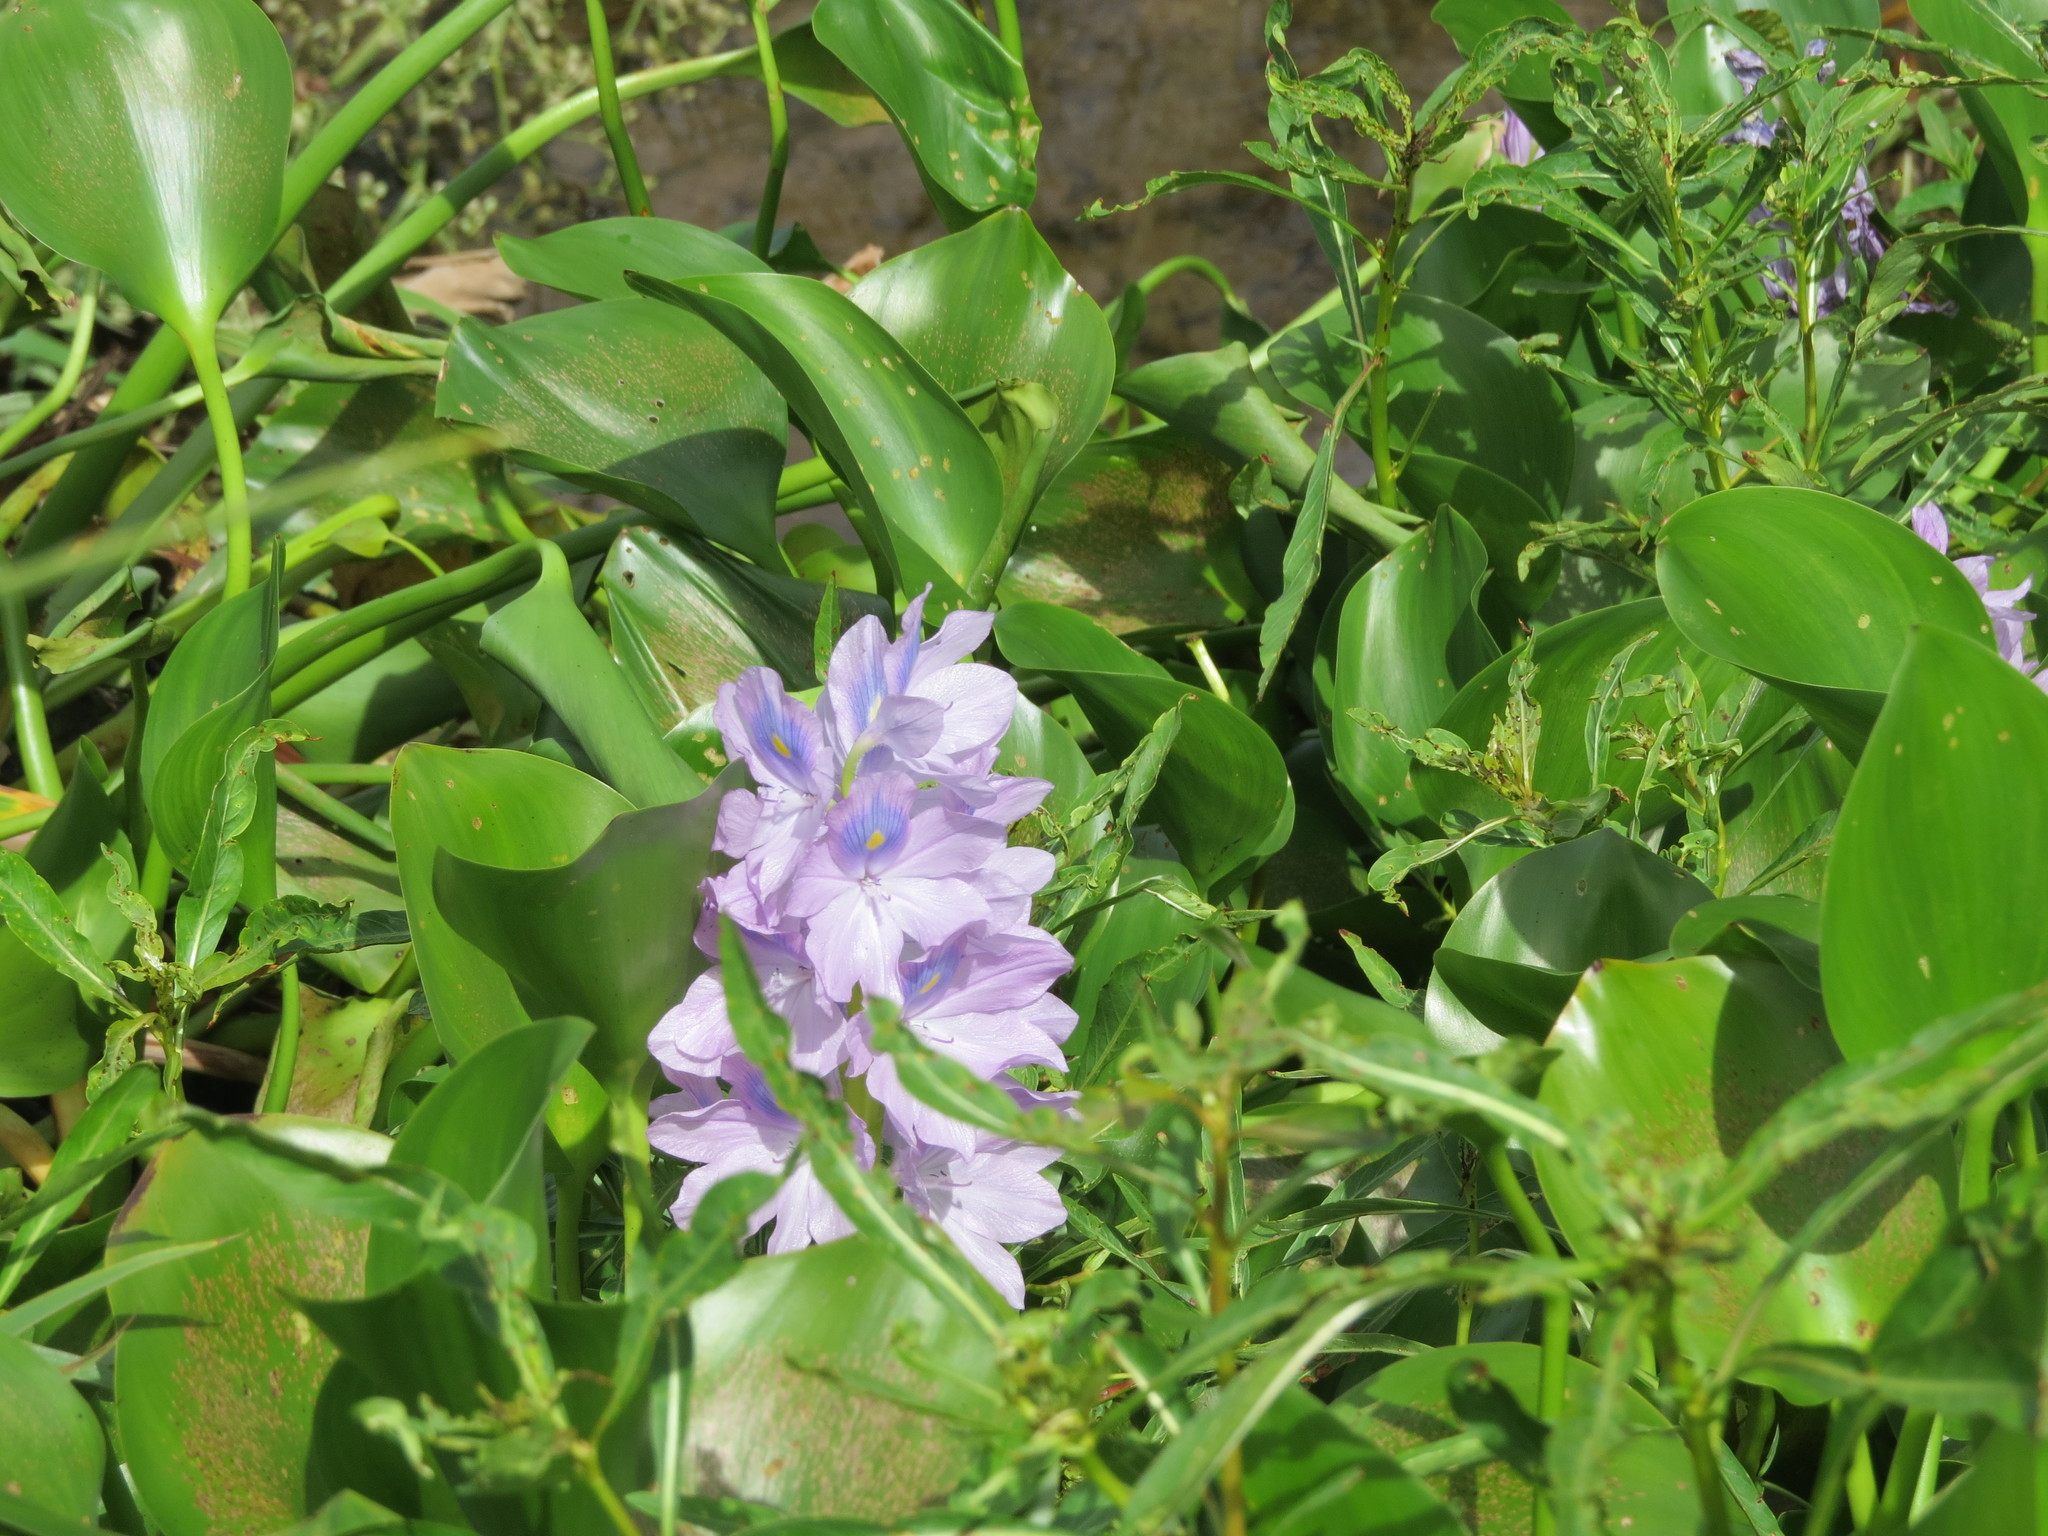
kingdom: Plantae
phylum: Tracheophyta
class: Liliopsida
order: Commelinales
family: Pontederiaceae
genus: Pontederia
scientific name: Pontederia crassipes
